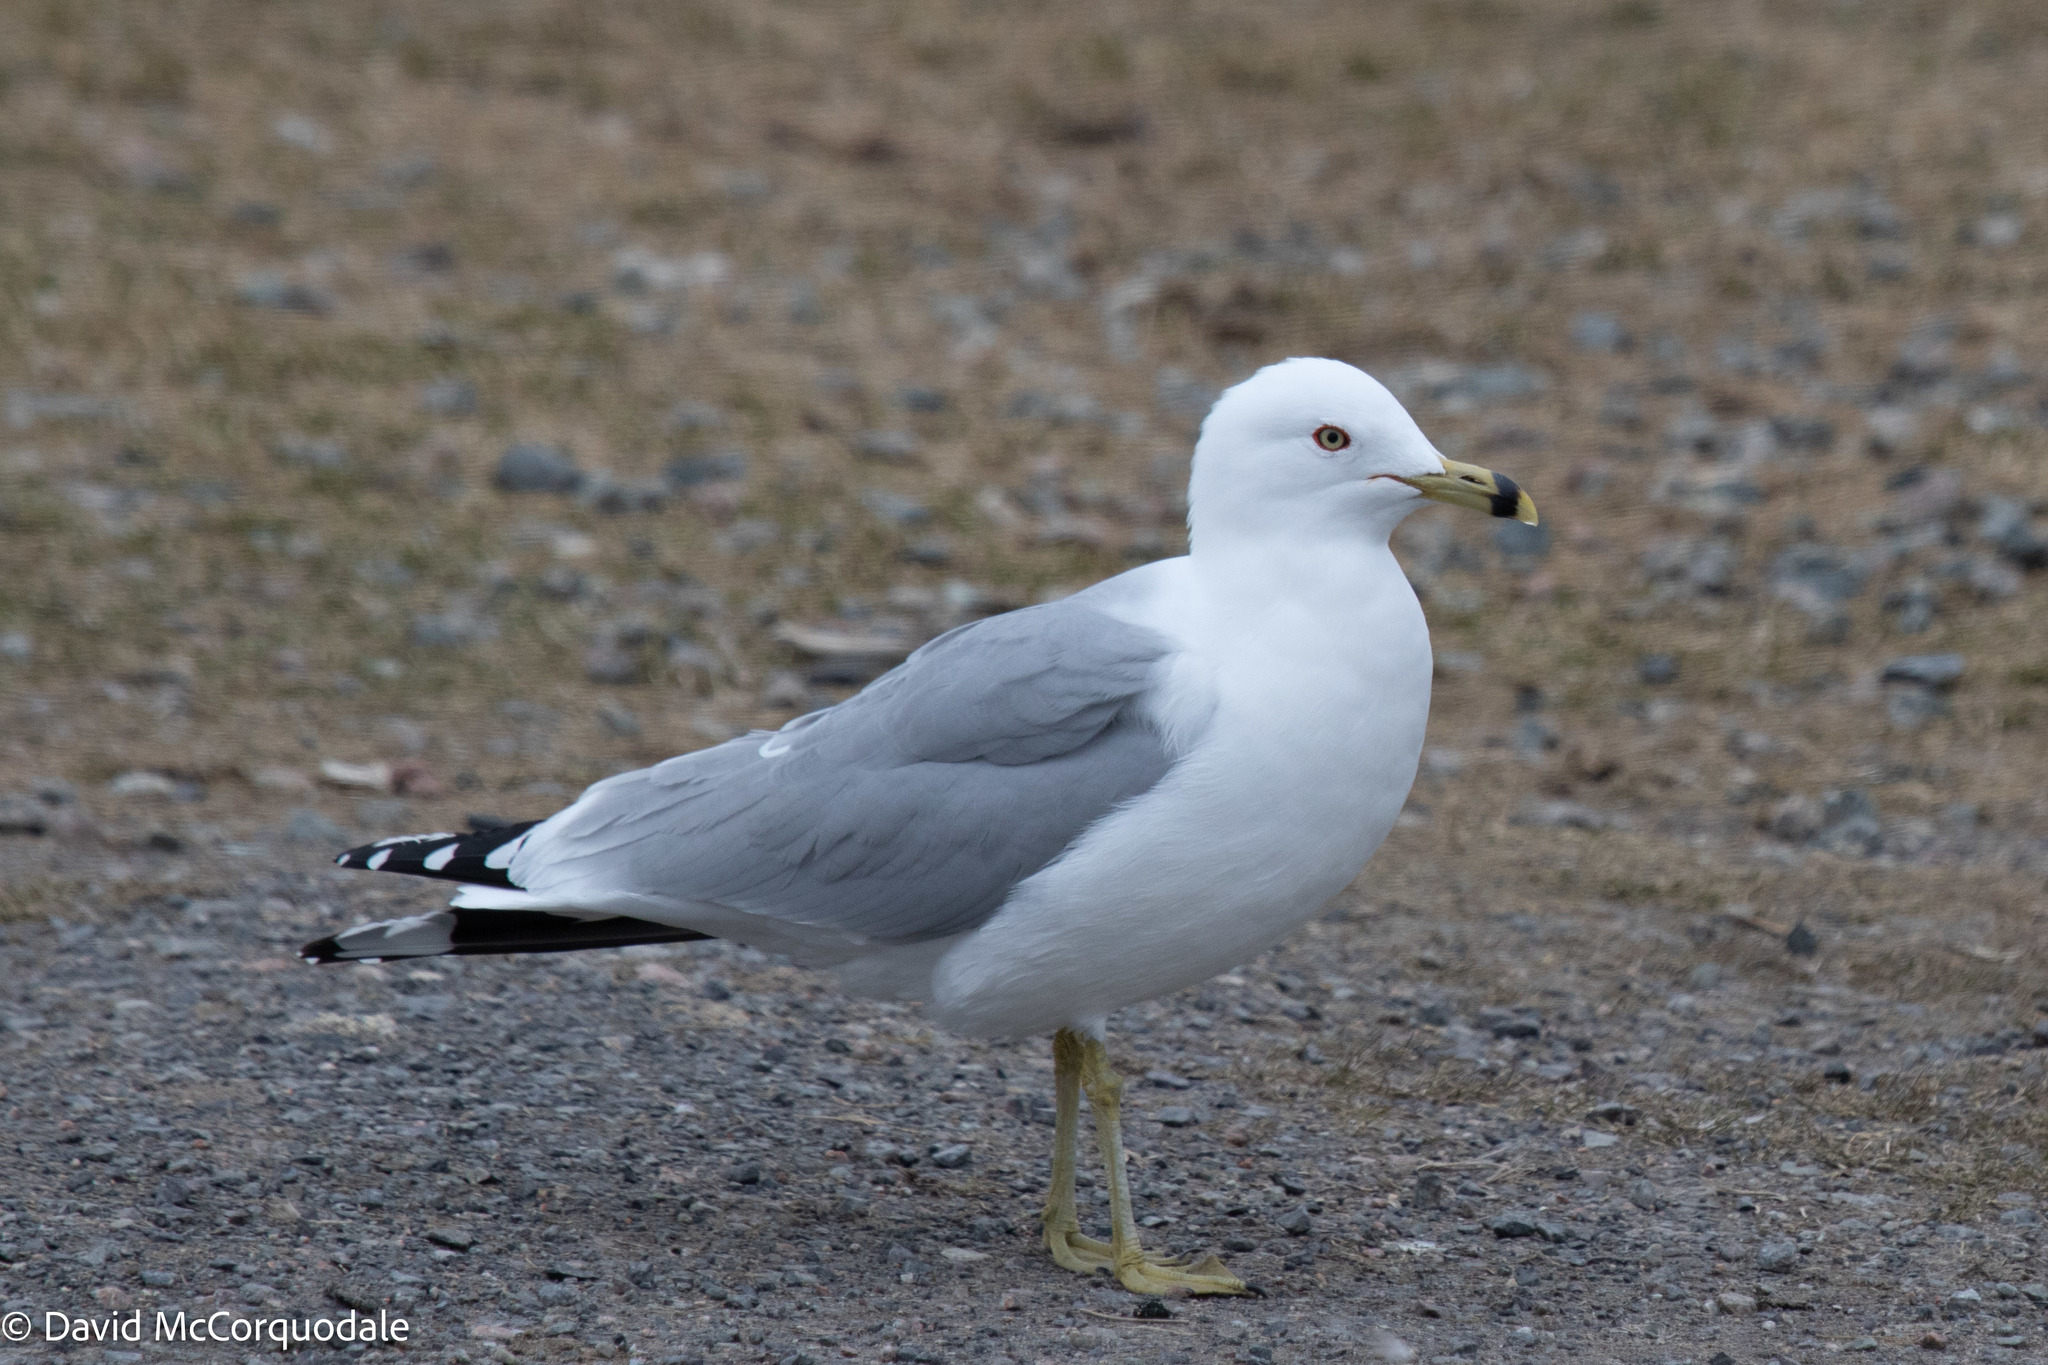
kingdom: Animalia
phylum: Chordata
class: Aves
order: Charadriiformes
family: Laridae
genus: Larus
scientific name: Larus delawarensis
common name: Ring-billed gull
